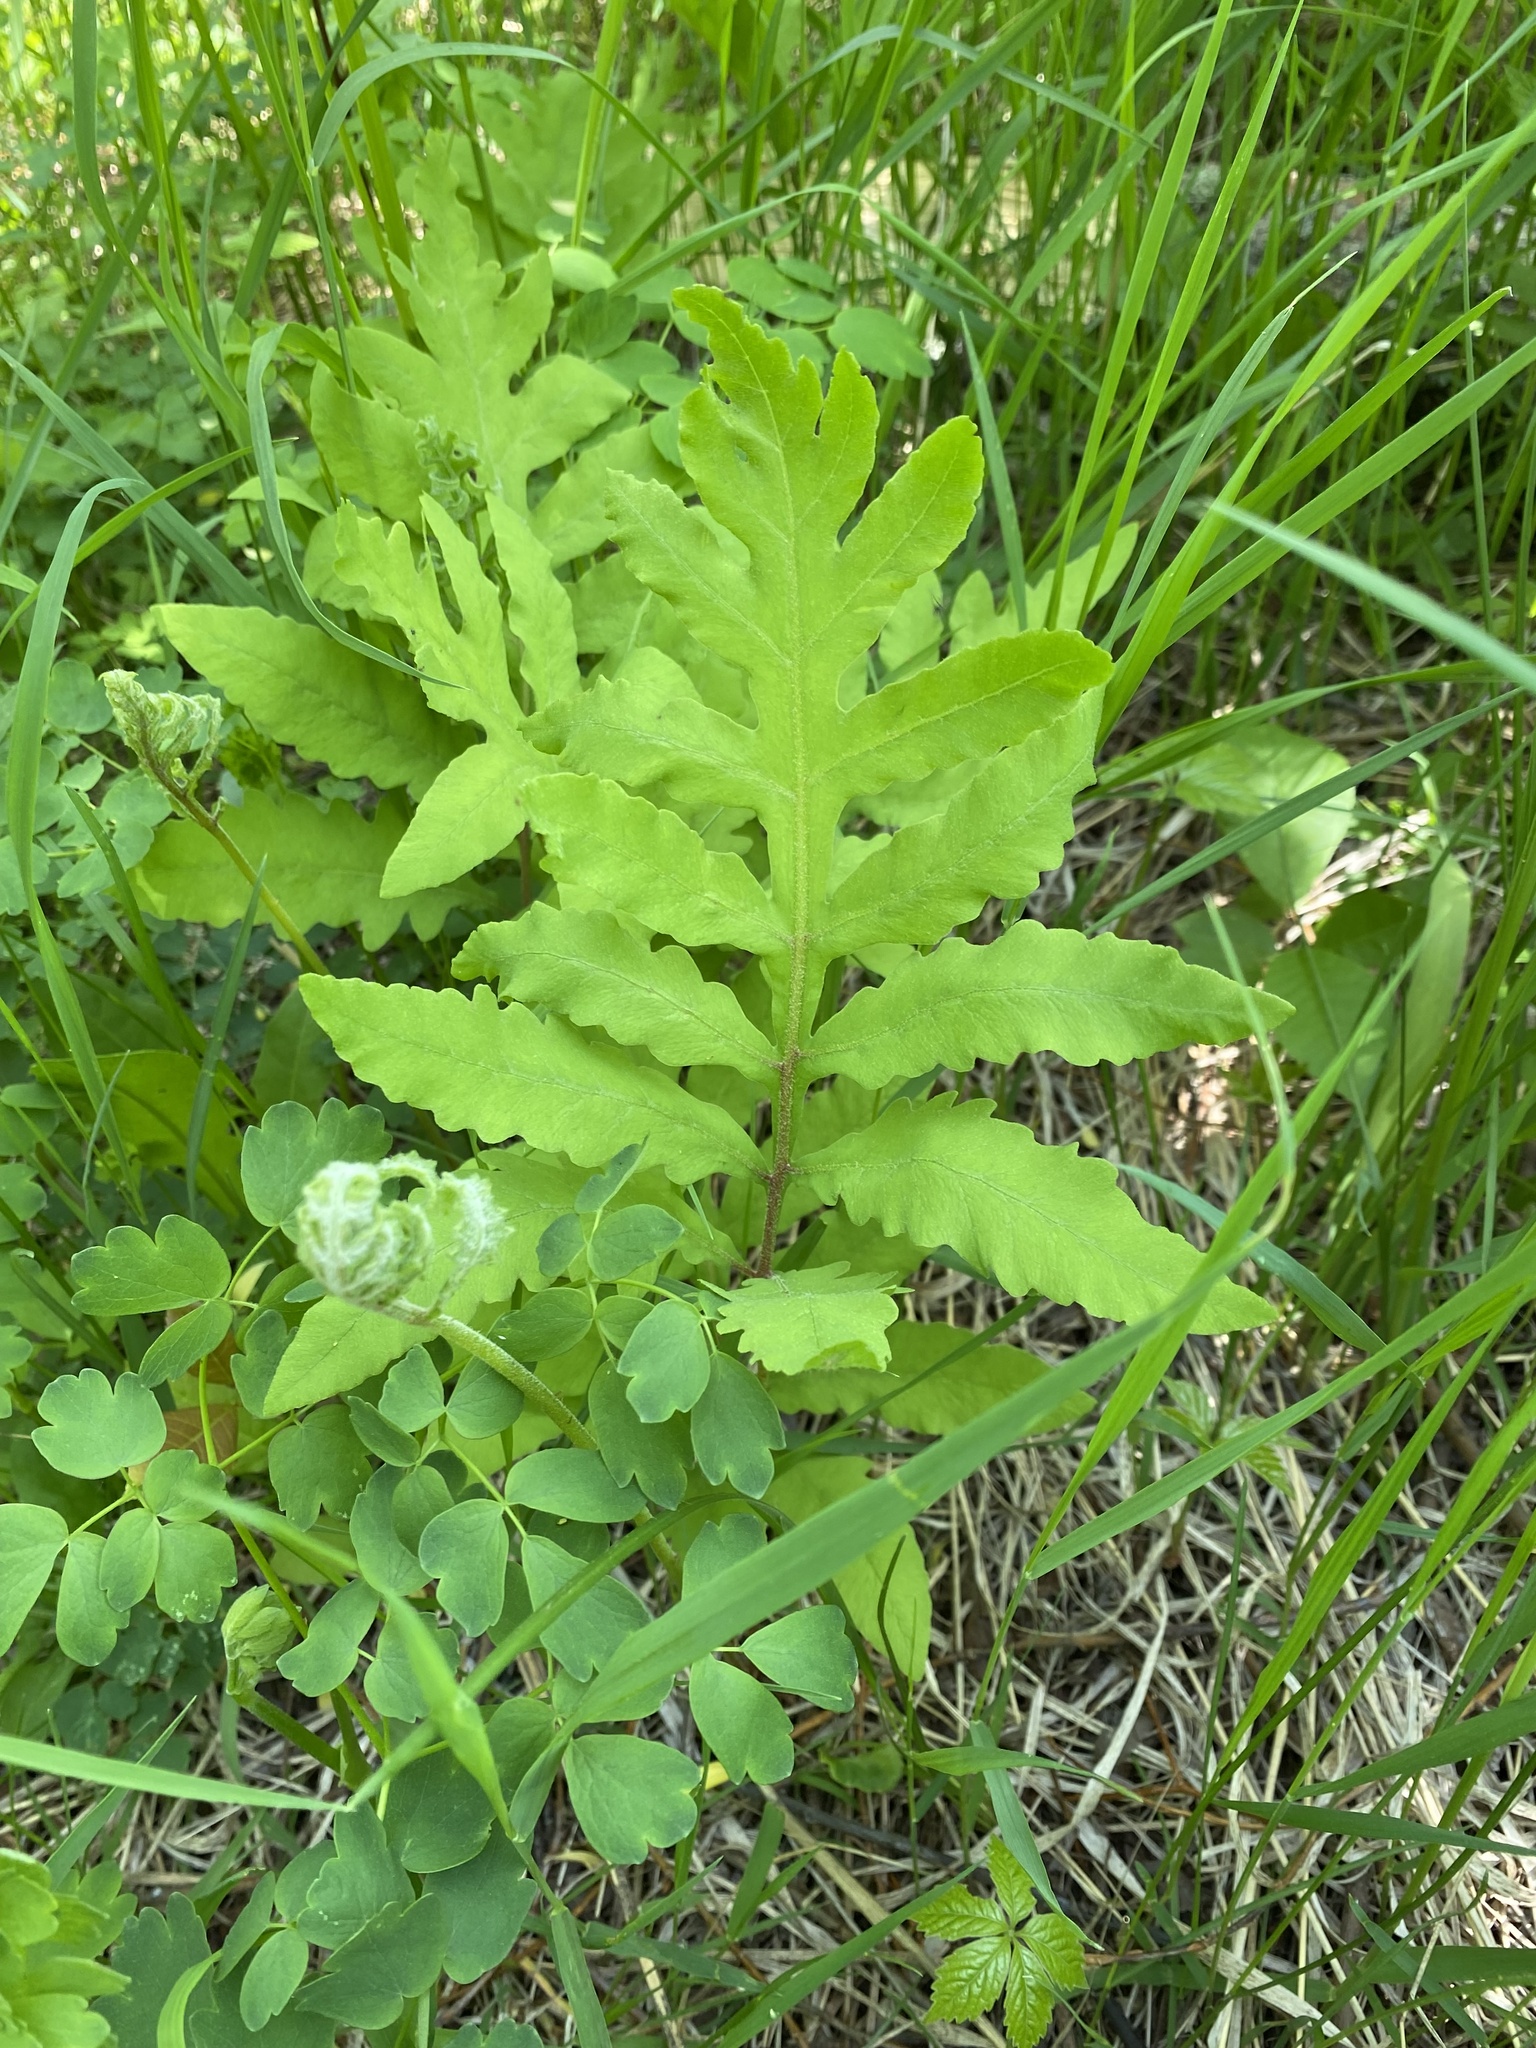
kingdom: Plantae
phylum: Tracheophyta
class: Polypodiopsida
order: Polypodiales
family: Onocleaceae
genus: Onoclea
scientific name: Onoclea sensibilis
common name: Sensitive fern
